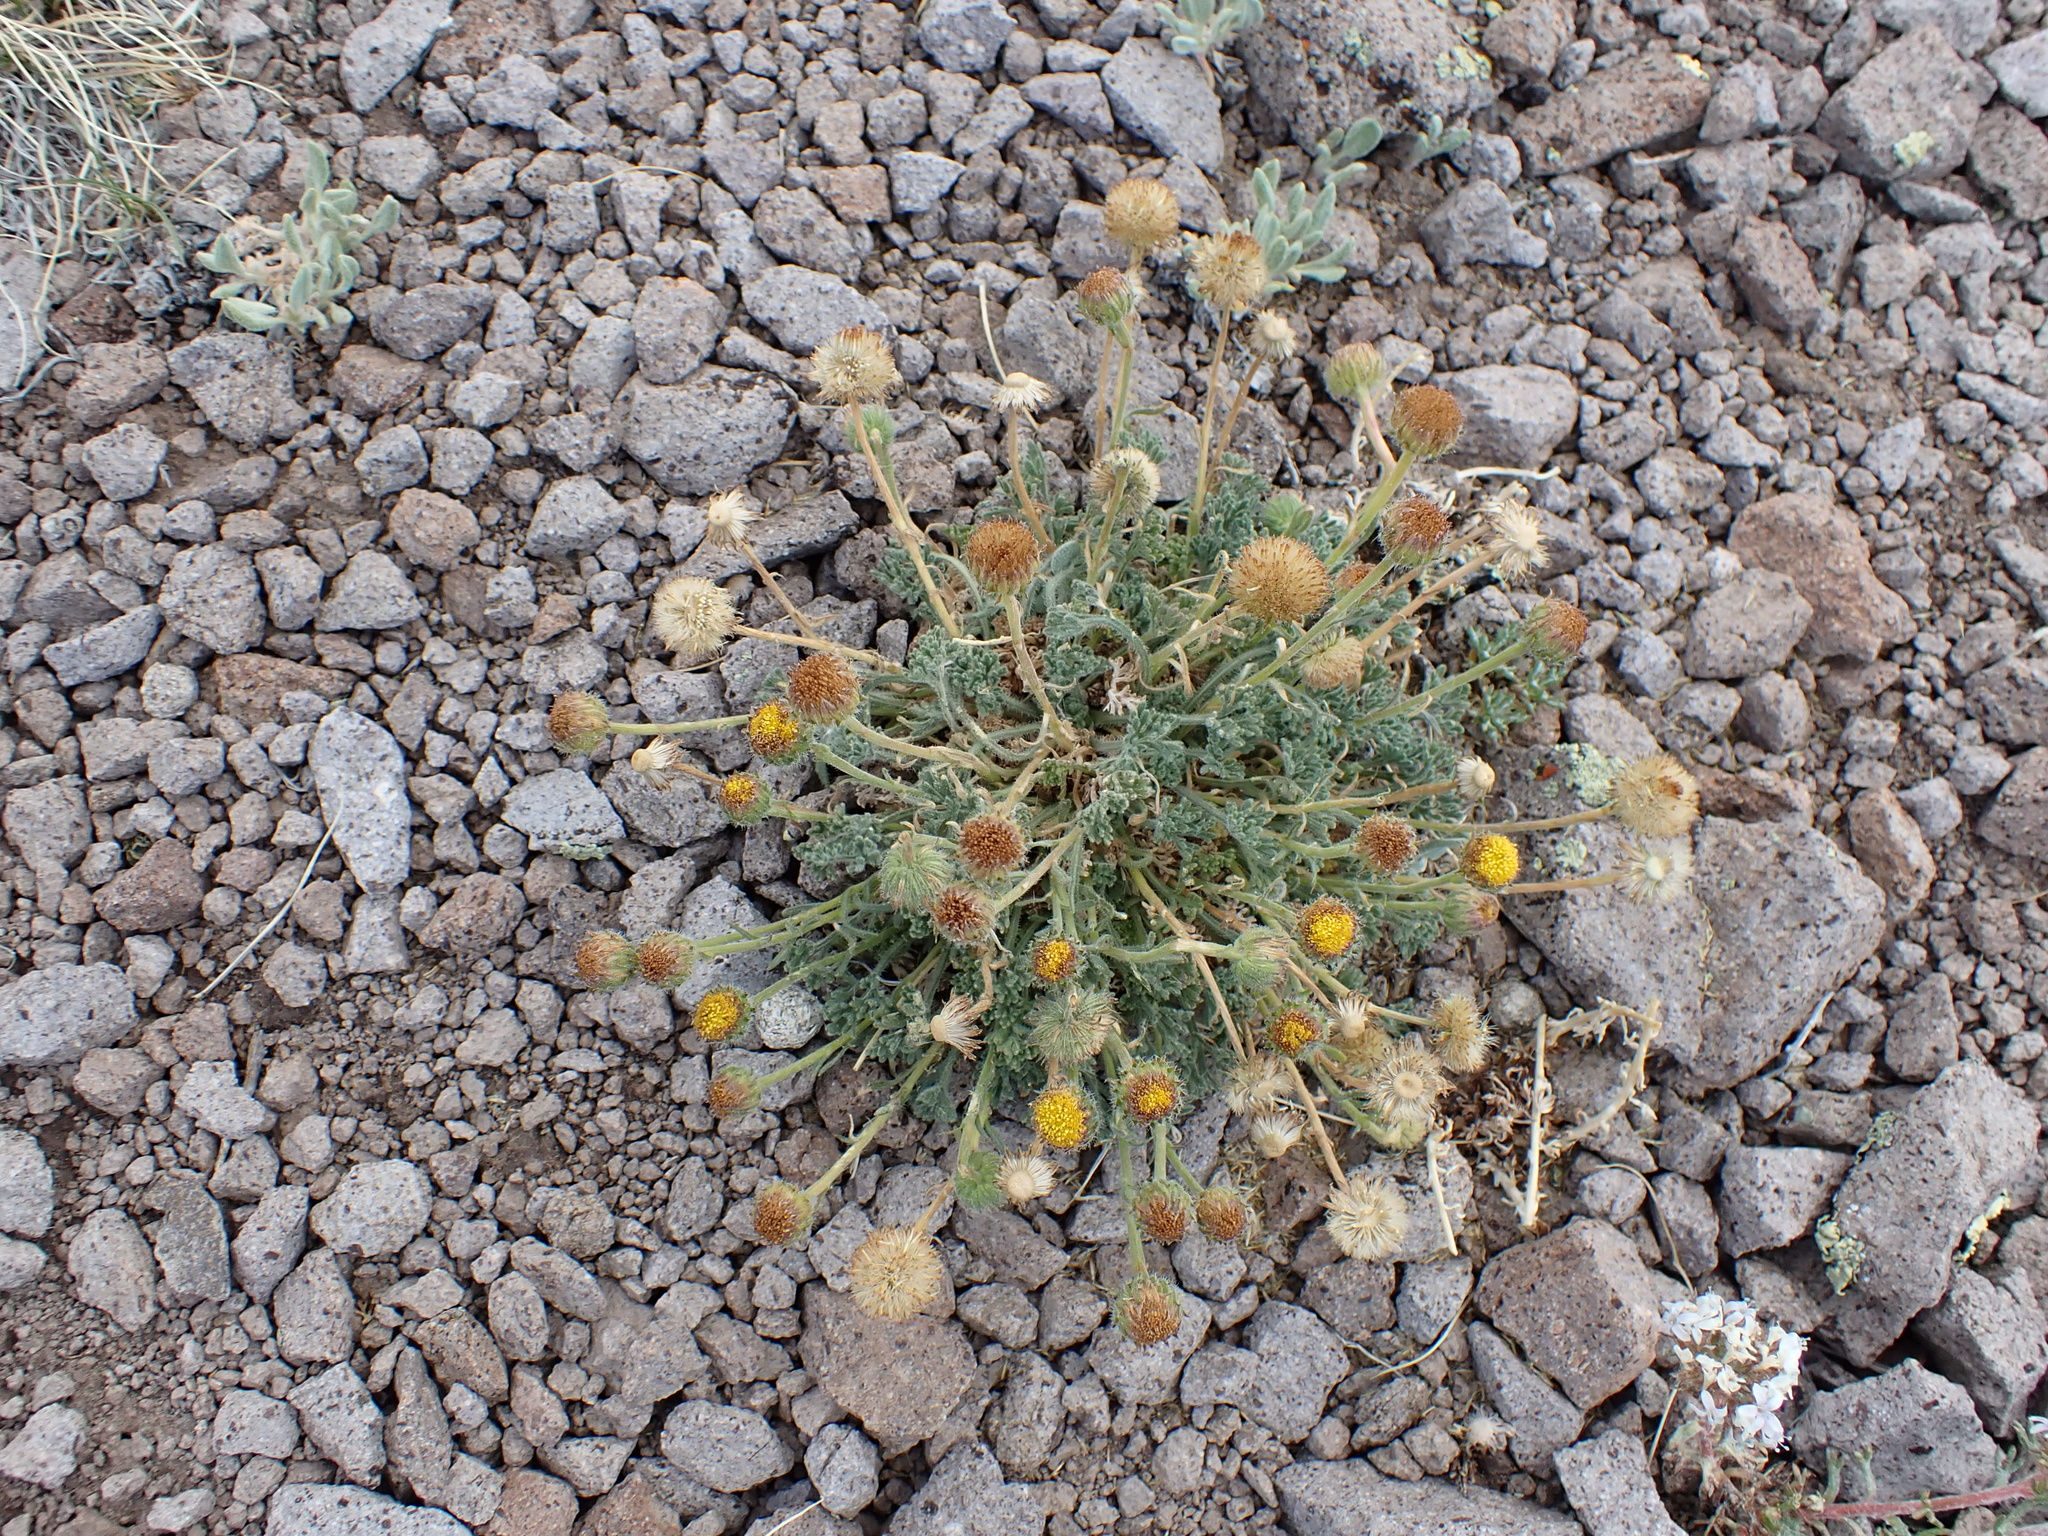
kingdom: Plantae
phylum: Tracheophyta
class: Magnoliopsida
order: Asterales
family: Asteraceae
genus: Erigeron
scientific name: Erigeron compositus
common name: Dwarf mountain fleabane
